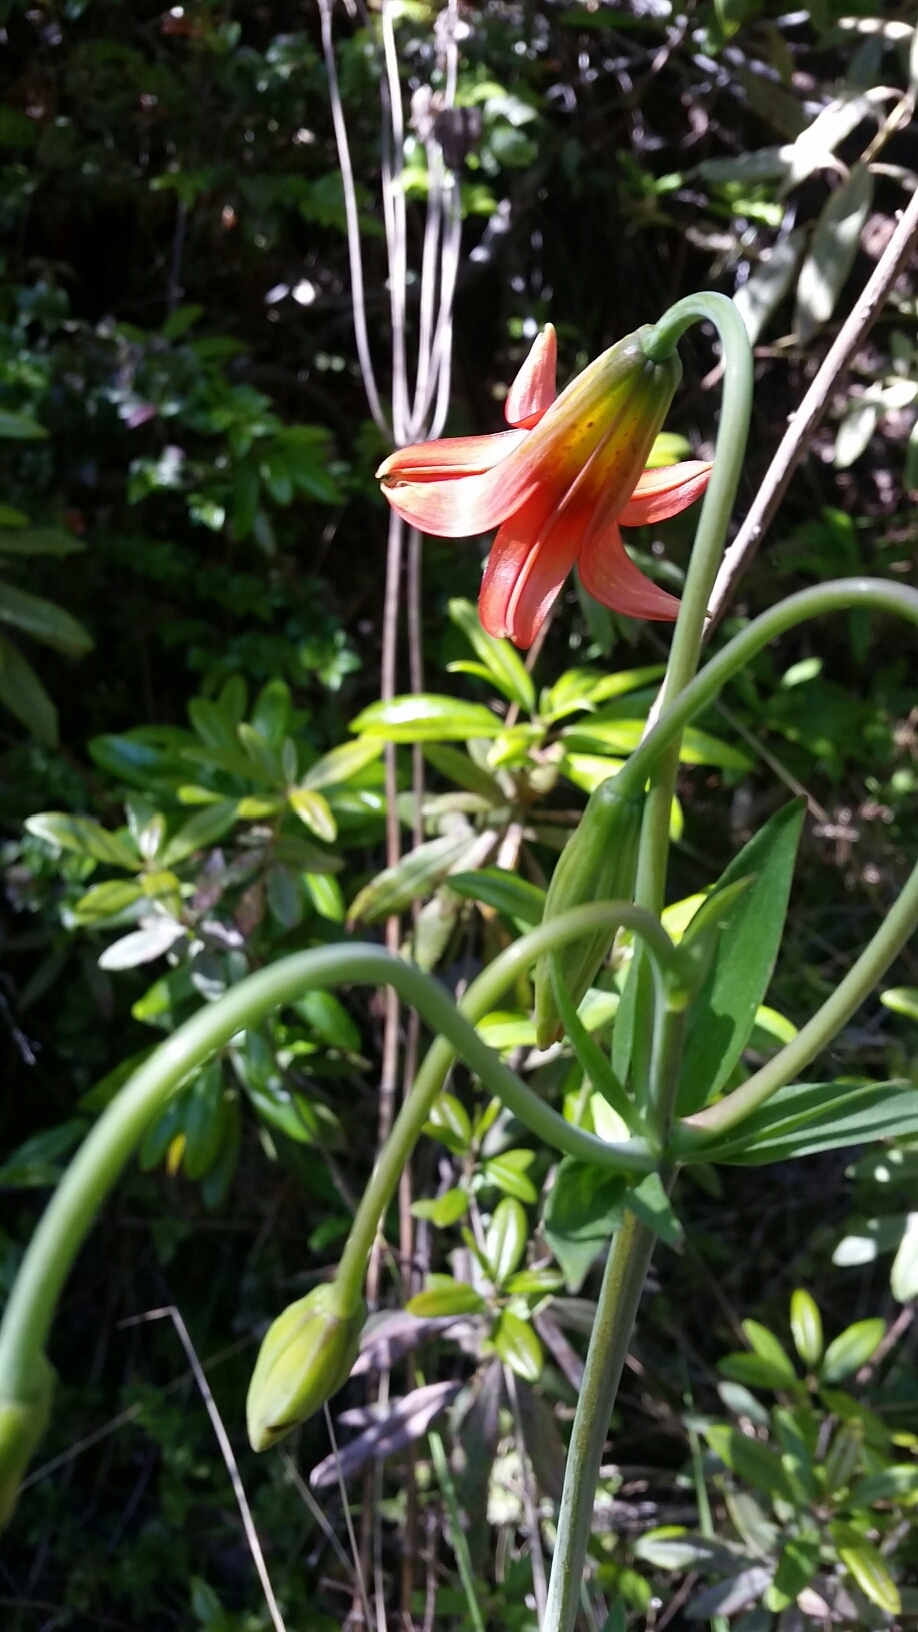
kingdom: Plantae
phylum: Tracheophyta
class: Liliopsida
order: Liliales
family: Liliaceae
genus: Lilium
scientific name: Lilium maritimum
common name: Coastal lily
